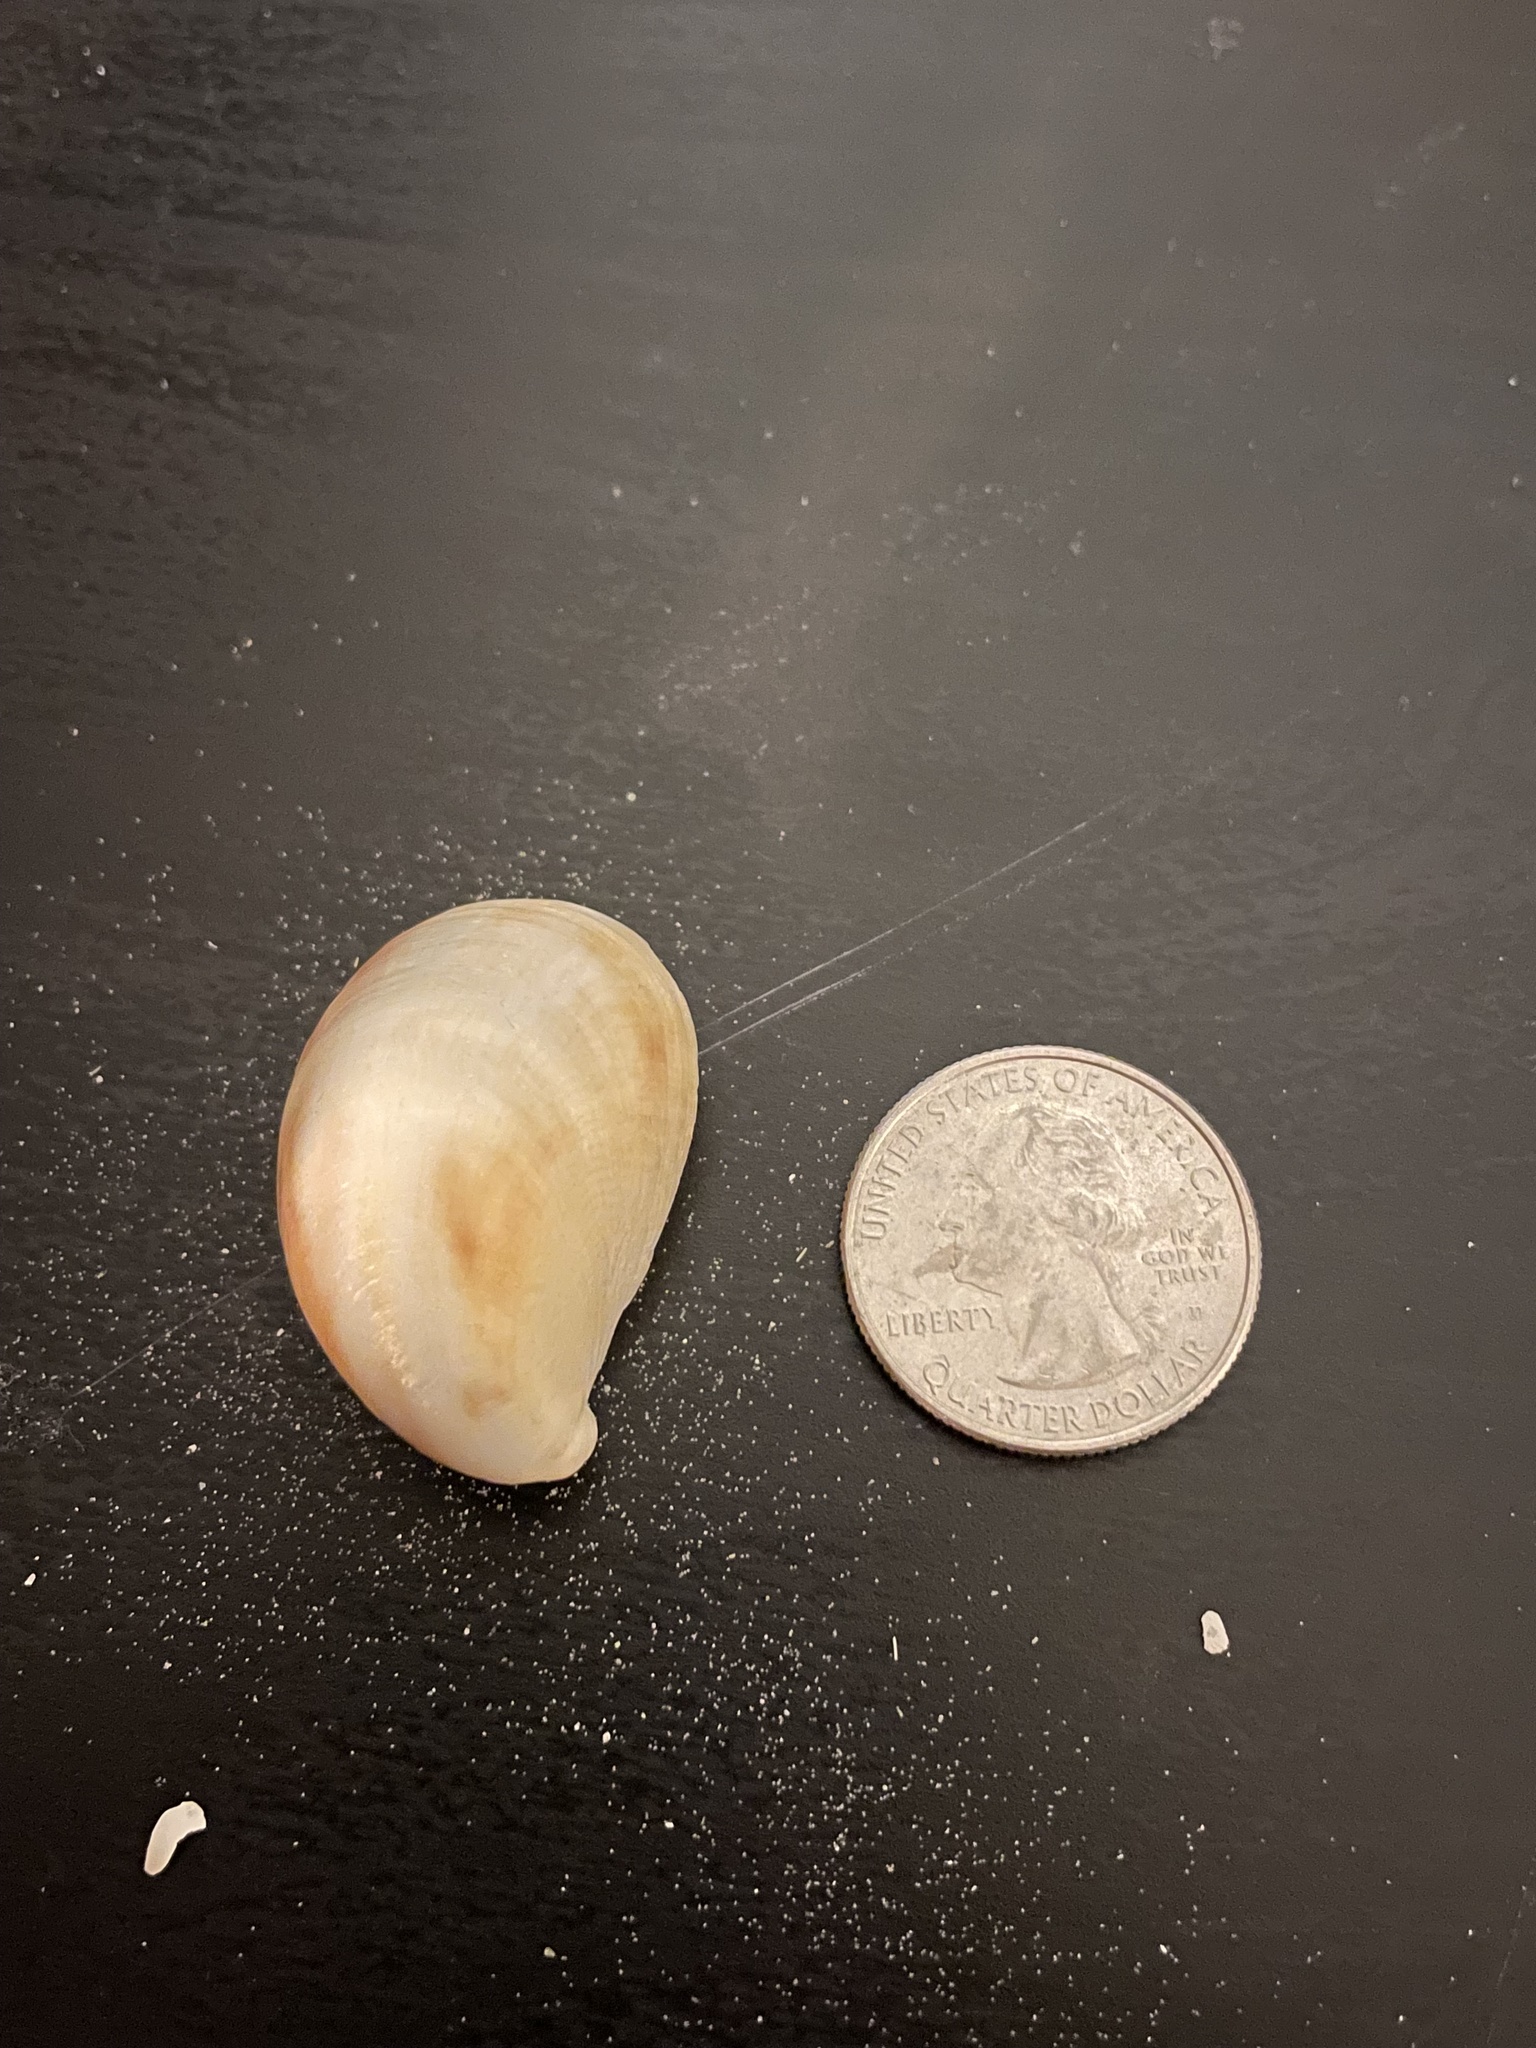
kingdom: Animalia
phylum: Mollusca
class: Gastropoda
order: Littorinimorpha
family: Calyptraeidae
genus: Crepidula
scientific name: Crepidula fornicata
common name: Slipper limpet
